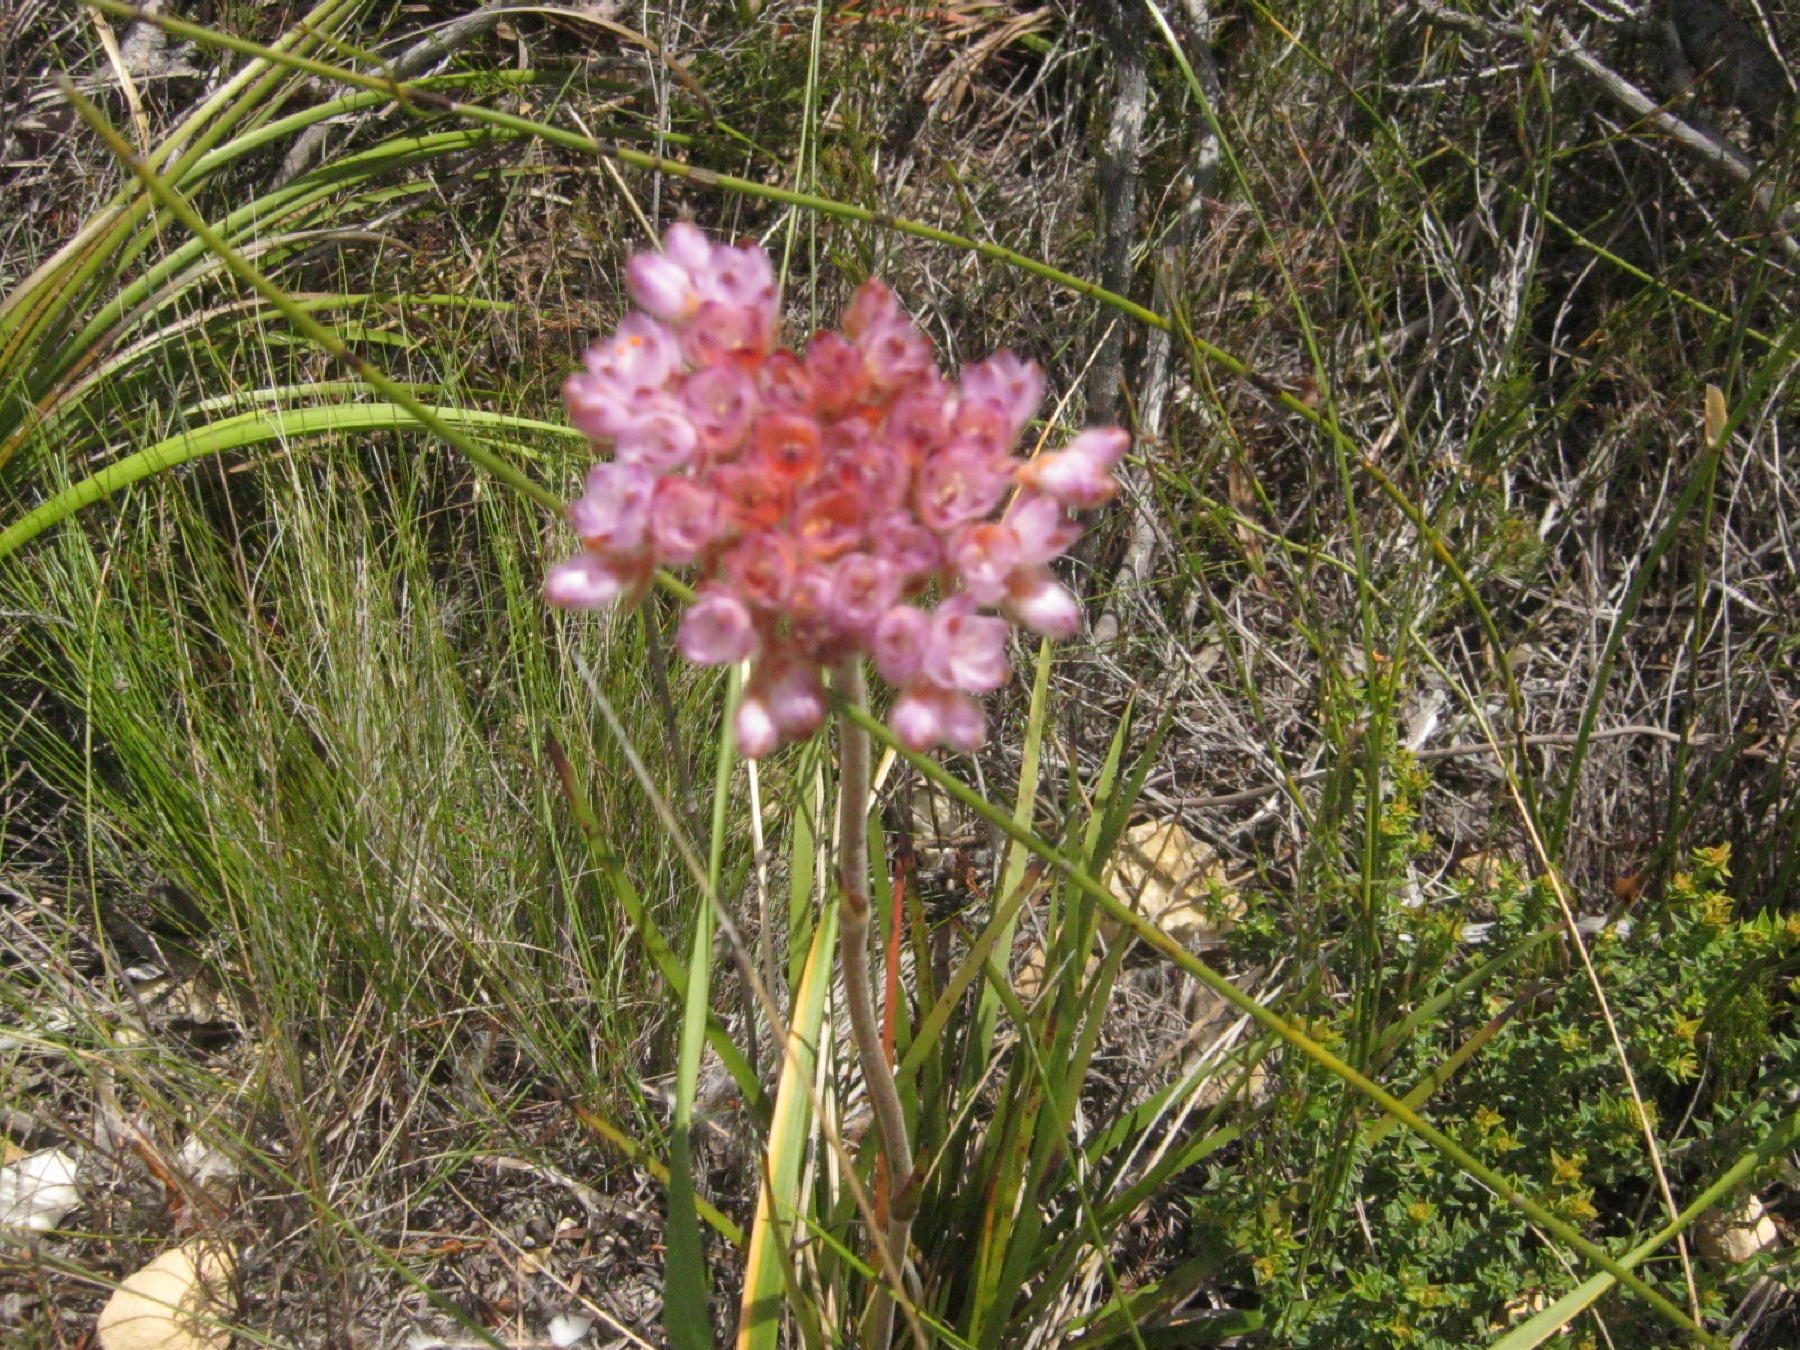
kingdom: Plantae
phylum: Tracheophyta
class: Liliopsida
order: Commelinales
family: Haemodoraceae
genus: Dilatris
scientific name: Dilatris pillansii
